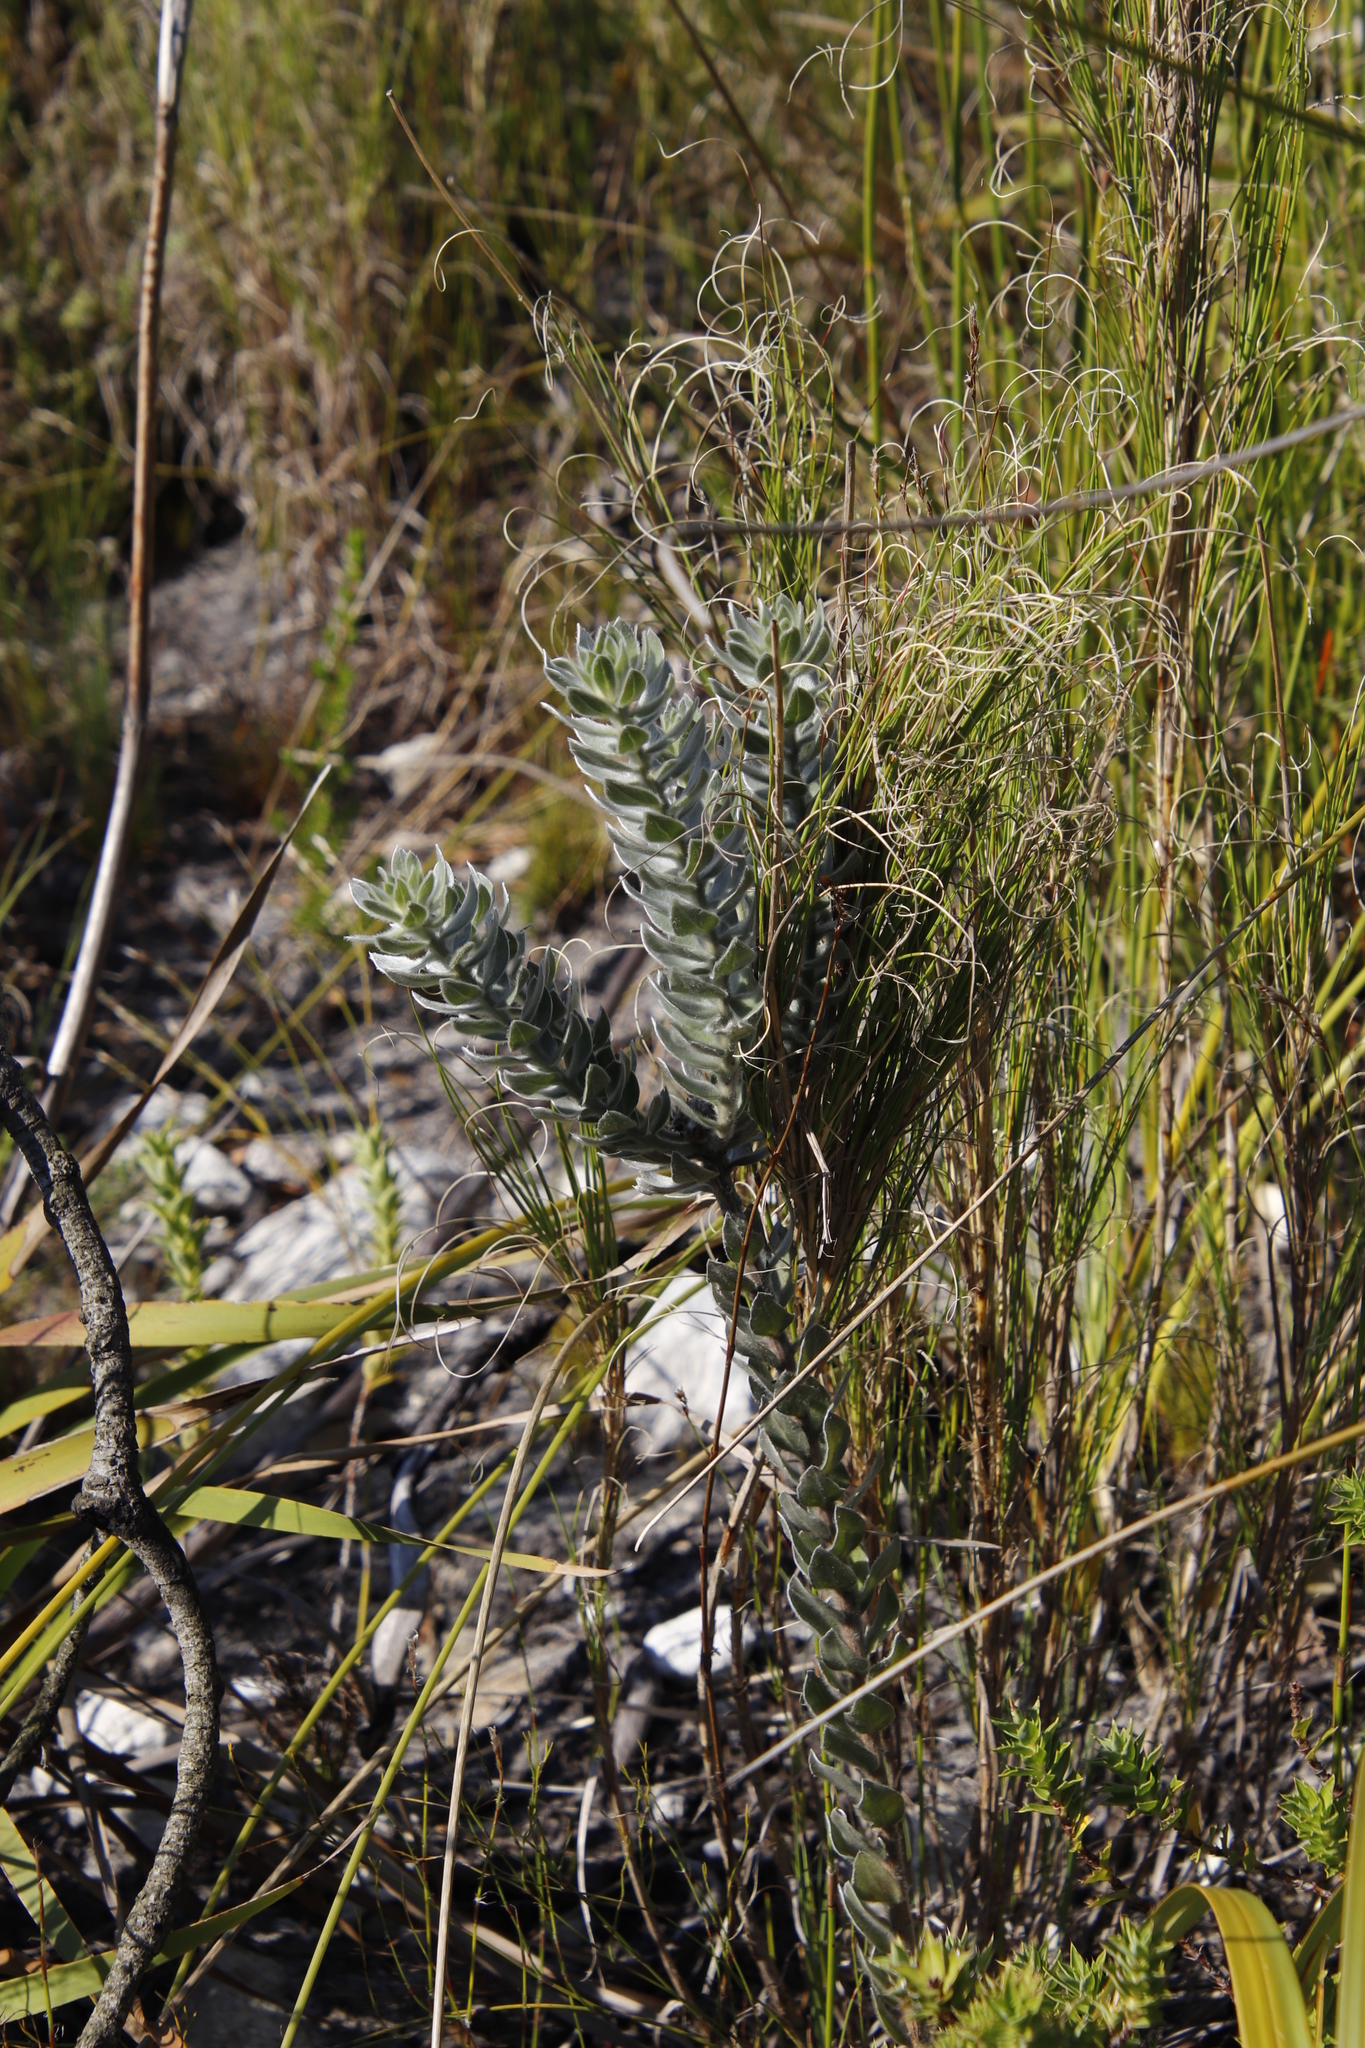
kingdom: Plantae
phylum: Tracheophyta
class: Magnoliopsida
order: Fabales
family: Fabaceae
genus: Xiphotheca
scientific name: Xiphotheca fruticosa
